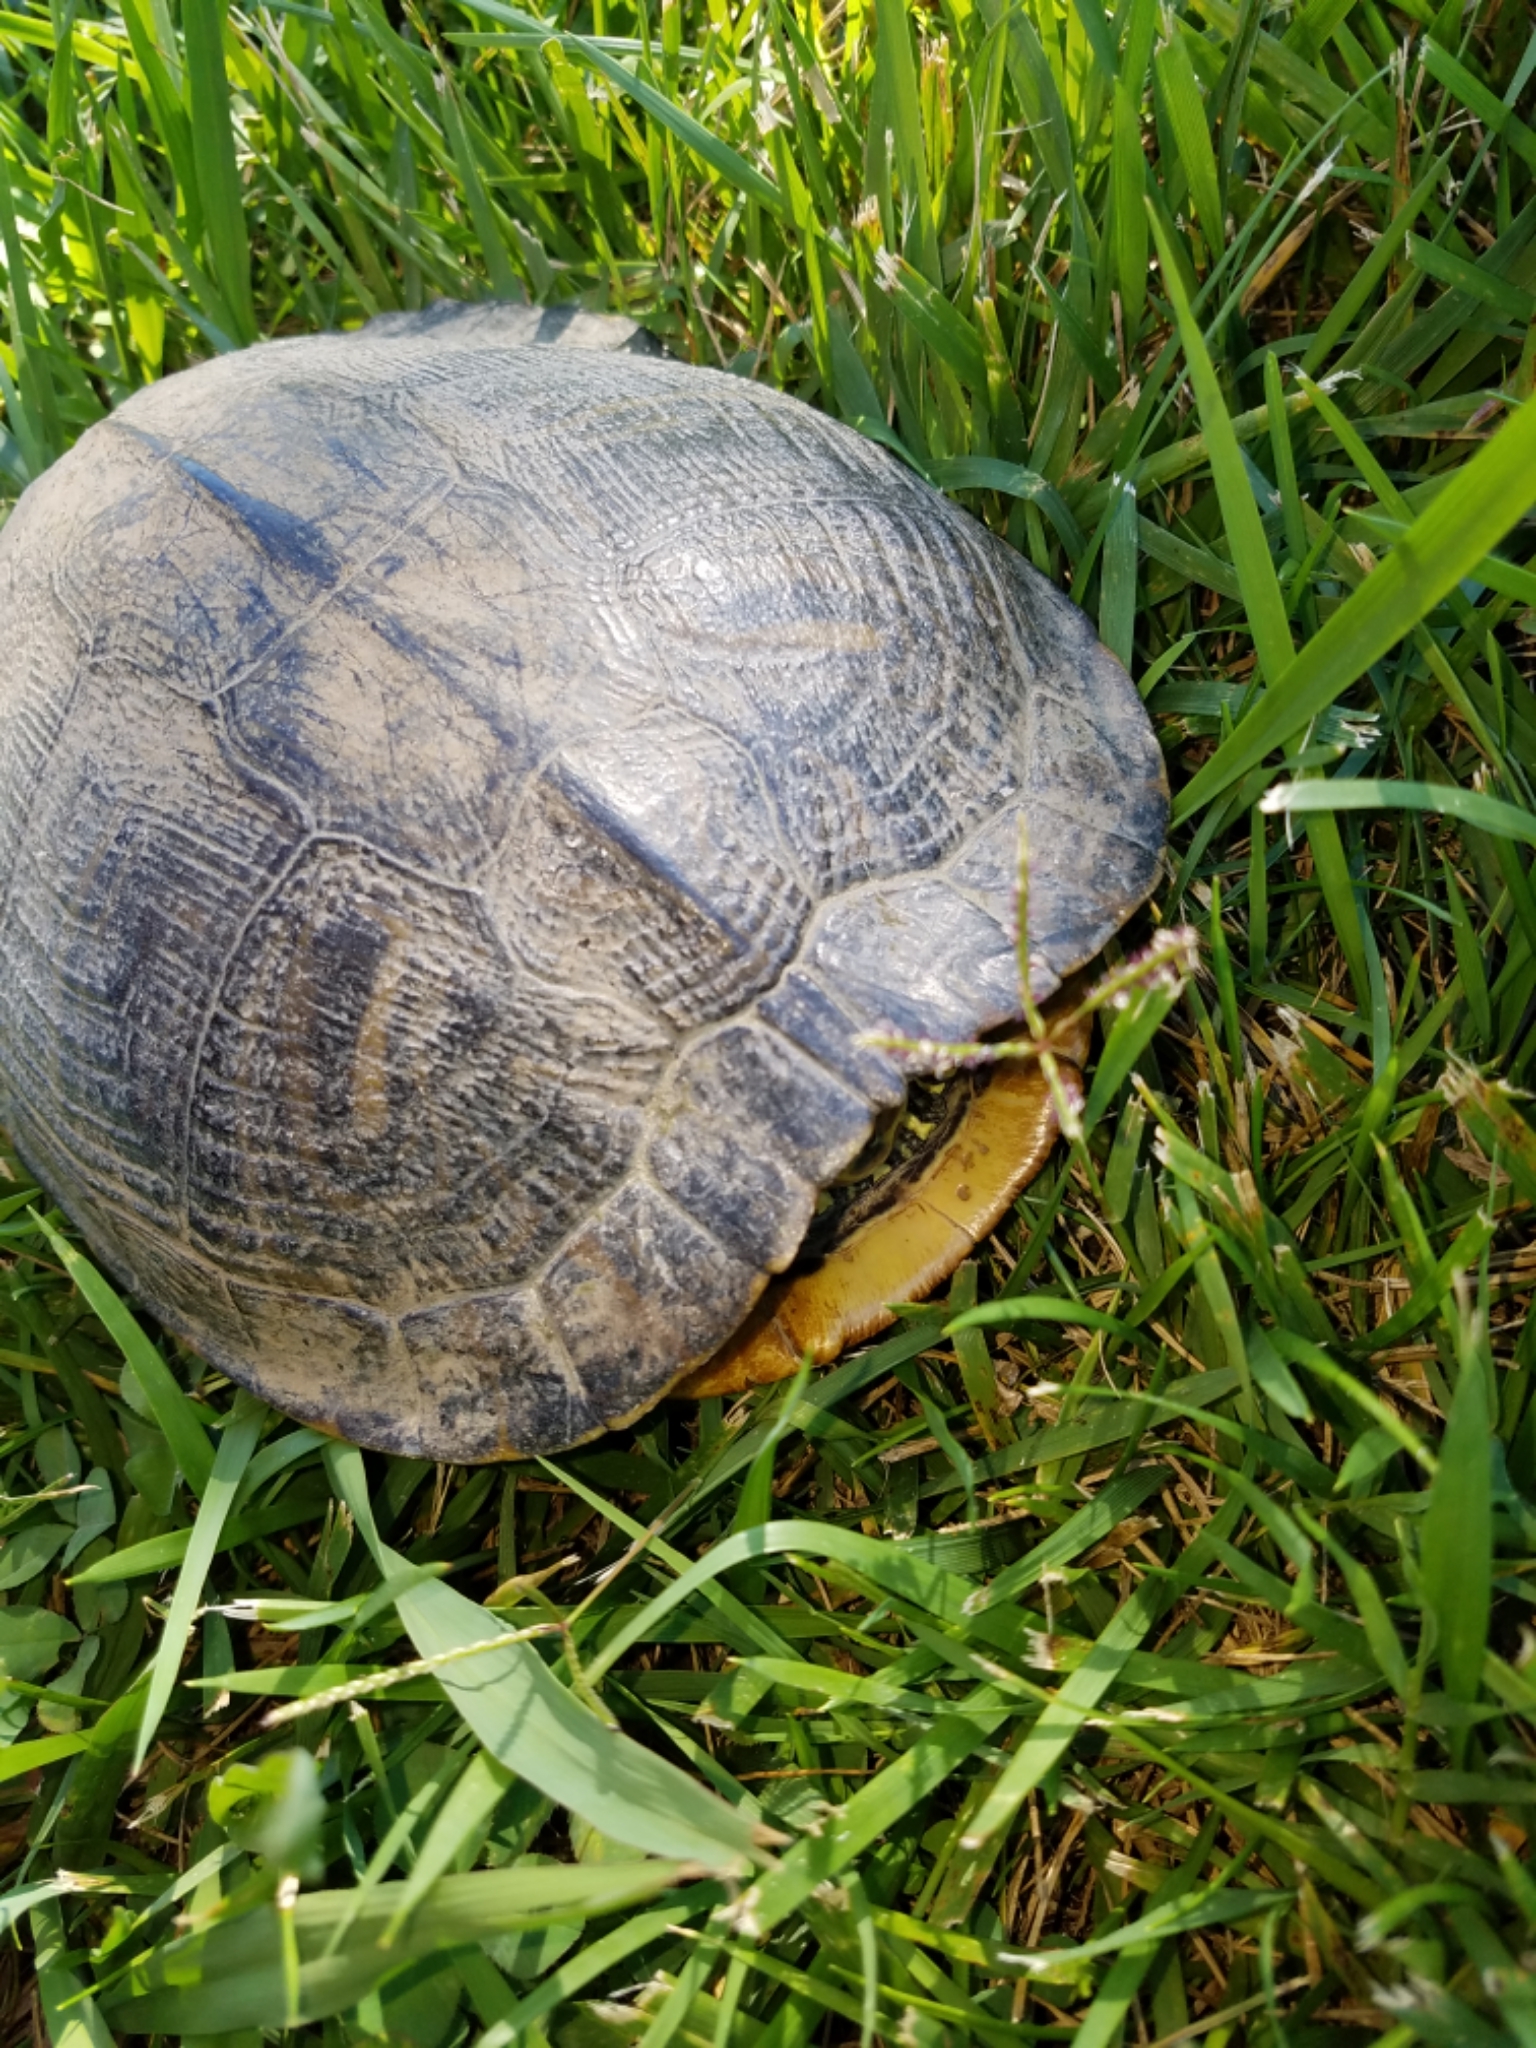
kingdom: Animalia
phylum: Chordata
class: Testudines
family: Emydidae
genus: Trachemys
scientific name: Trachemys scripta
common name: Slider
